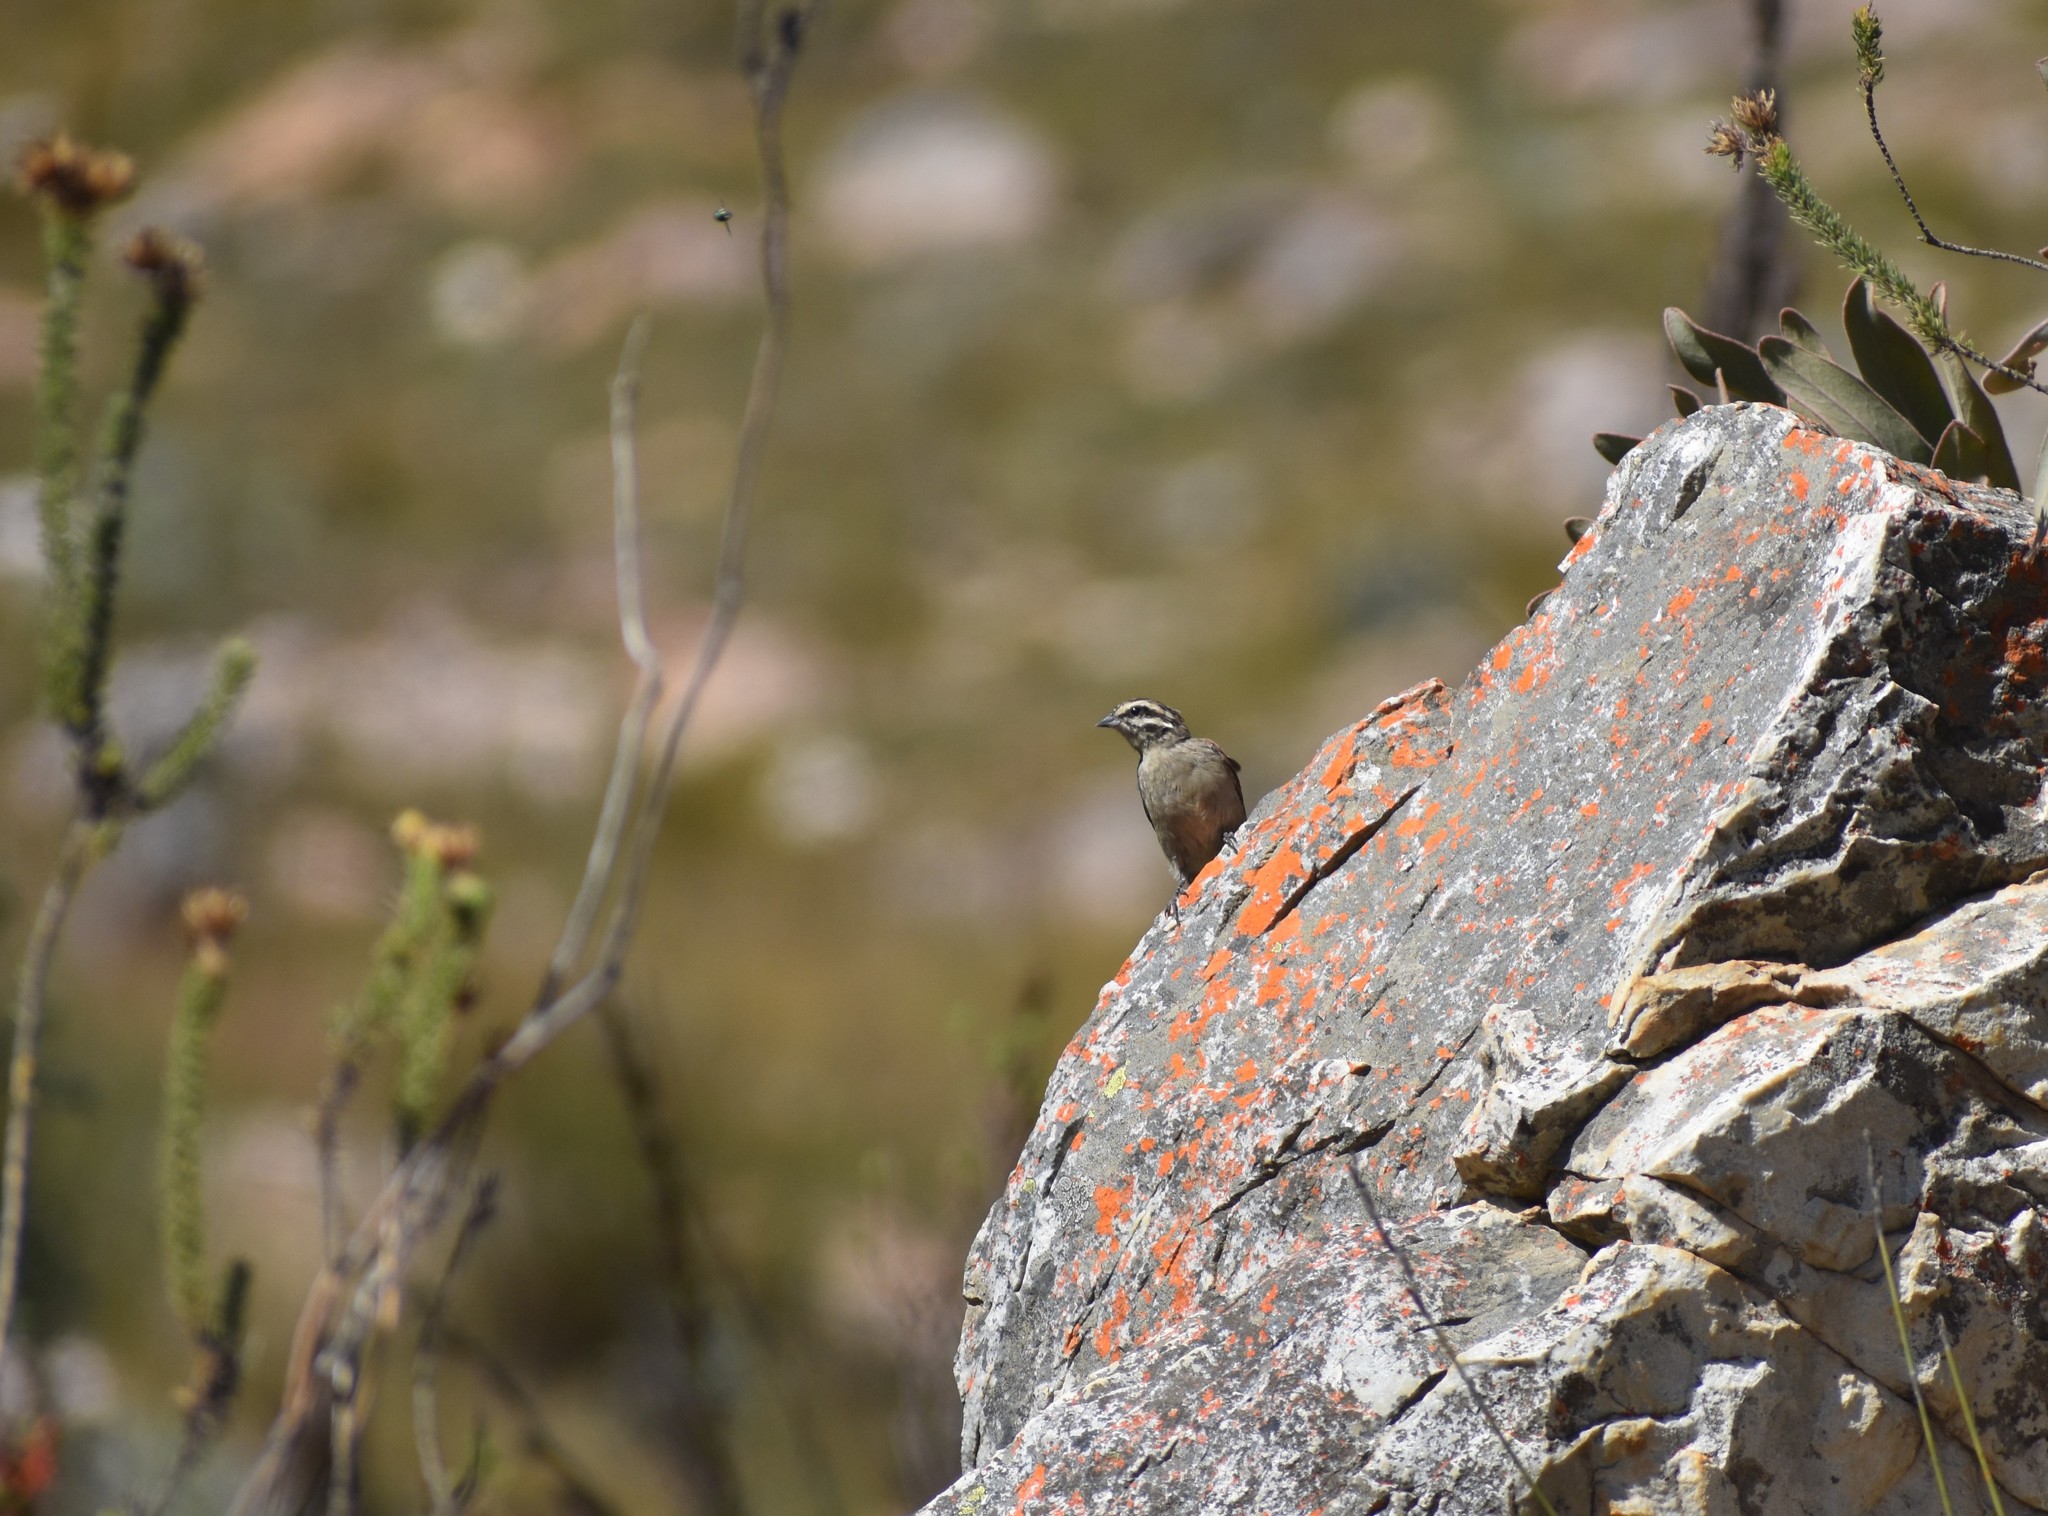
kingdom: Animalia
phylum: Chordata
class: Aves
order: Passeriformes
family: Emberizidae
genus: Emberiza
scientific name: Emberiza capensis
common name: Cape bunting
